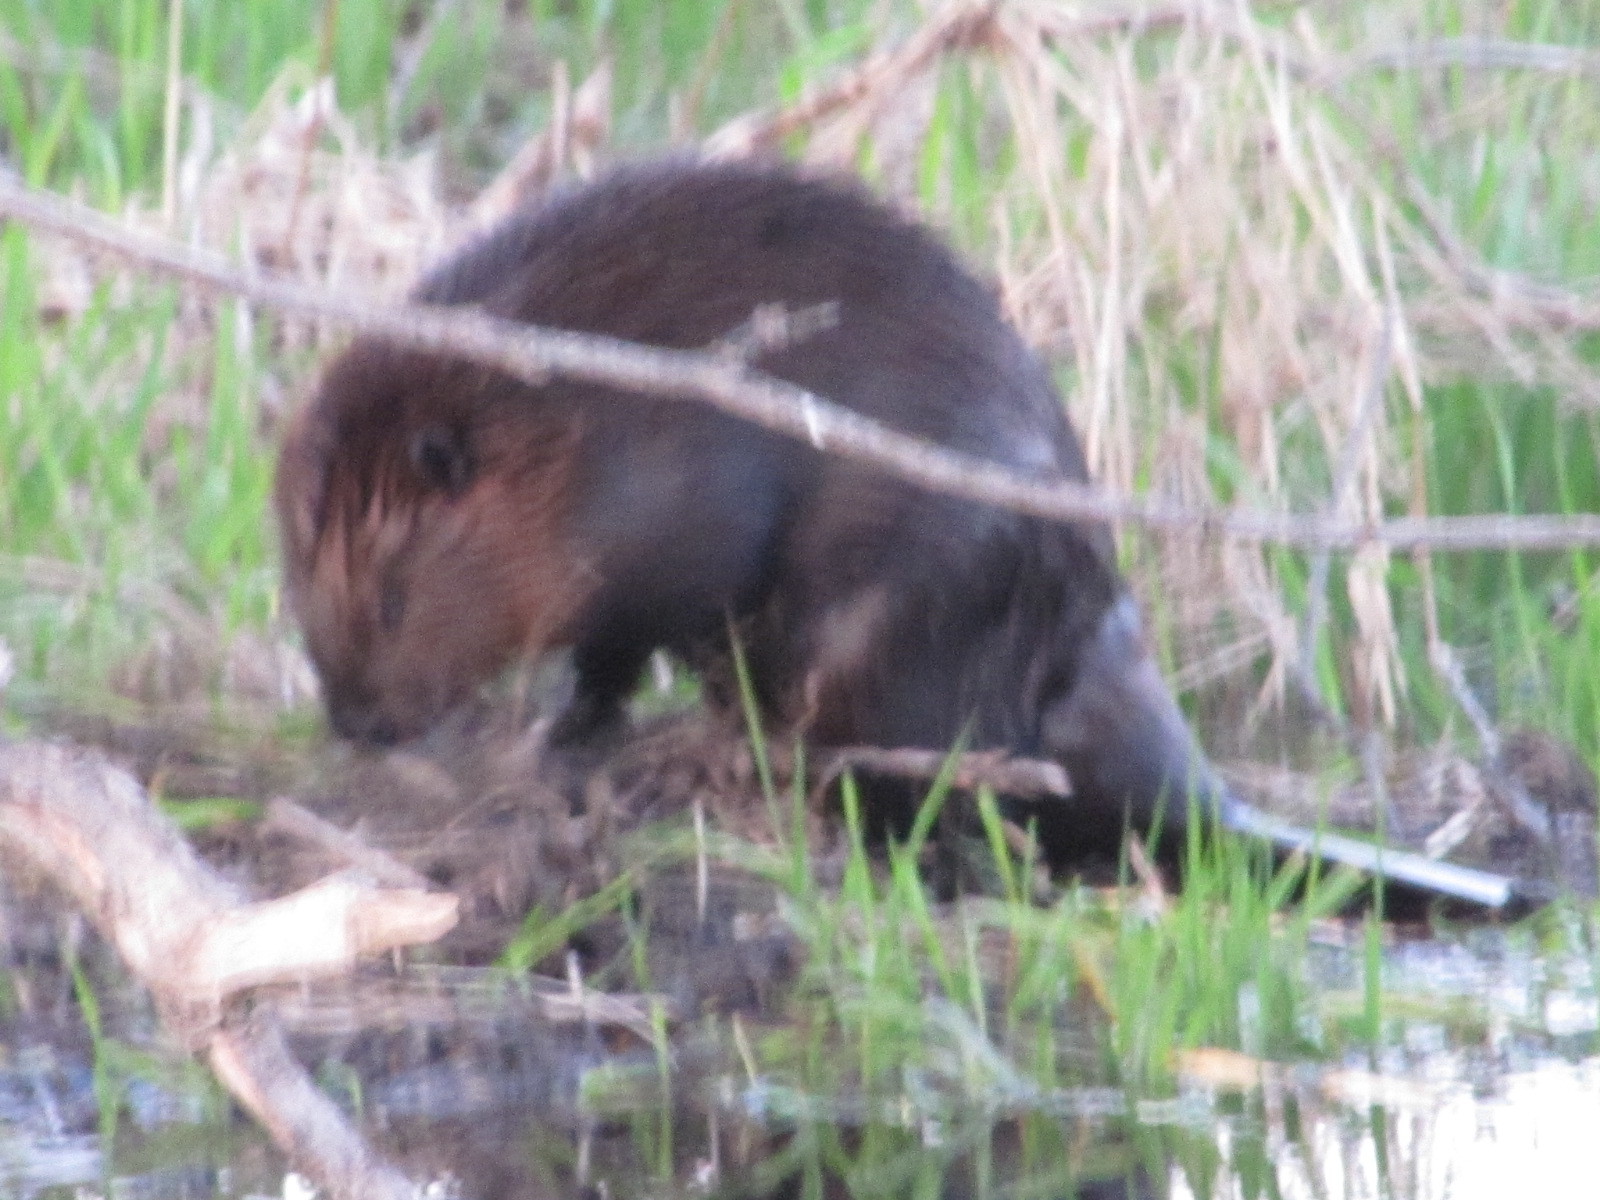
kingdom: Animalia
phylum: Chordata
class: Mammalia
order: Rodentia
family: Castoridae
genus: Castor
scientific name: Castor canadensis
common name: American beaver
